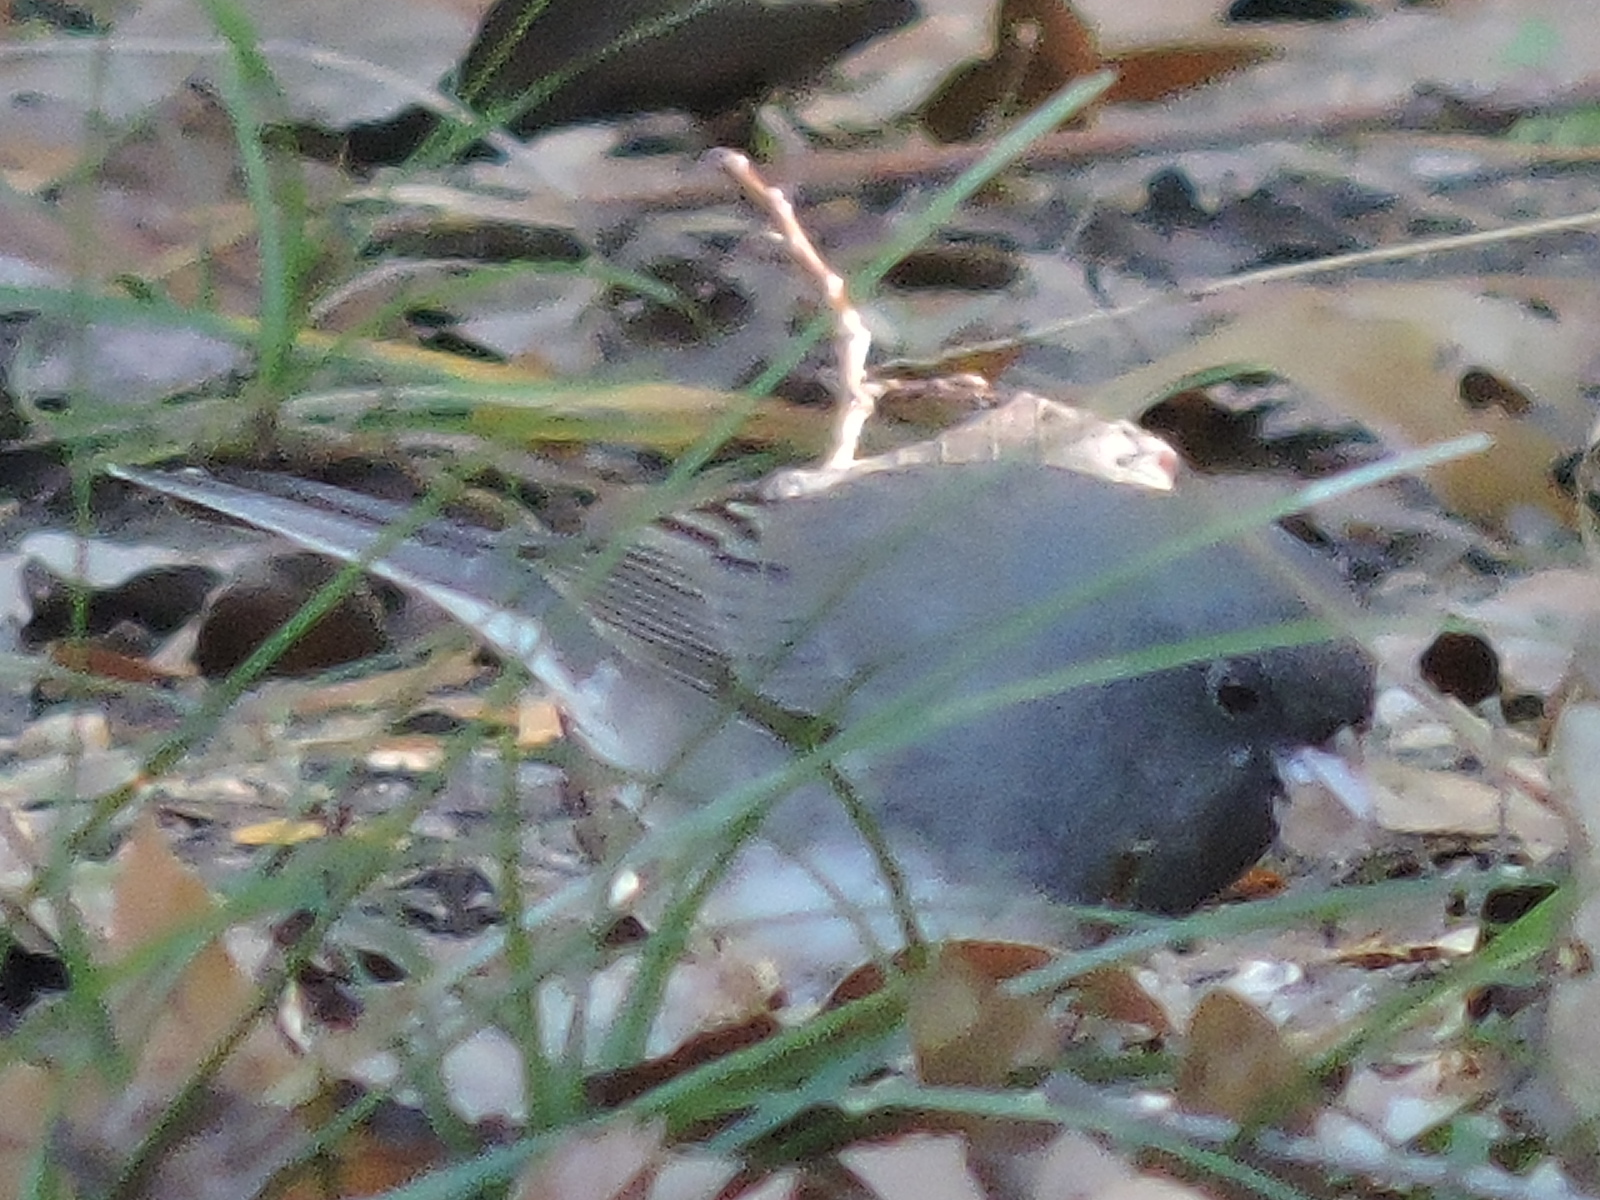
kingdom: Animalia
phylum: Chordata
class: Aves
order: Passeriformes
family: Passerellidae
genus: Junco
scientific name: Junco hyemalis
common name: Dark-eyed junco
